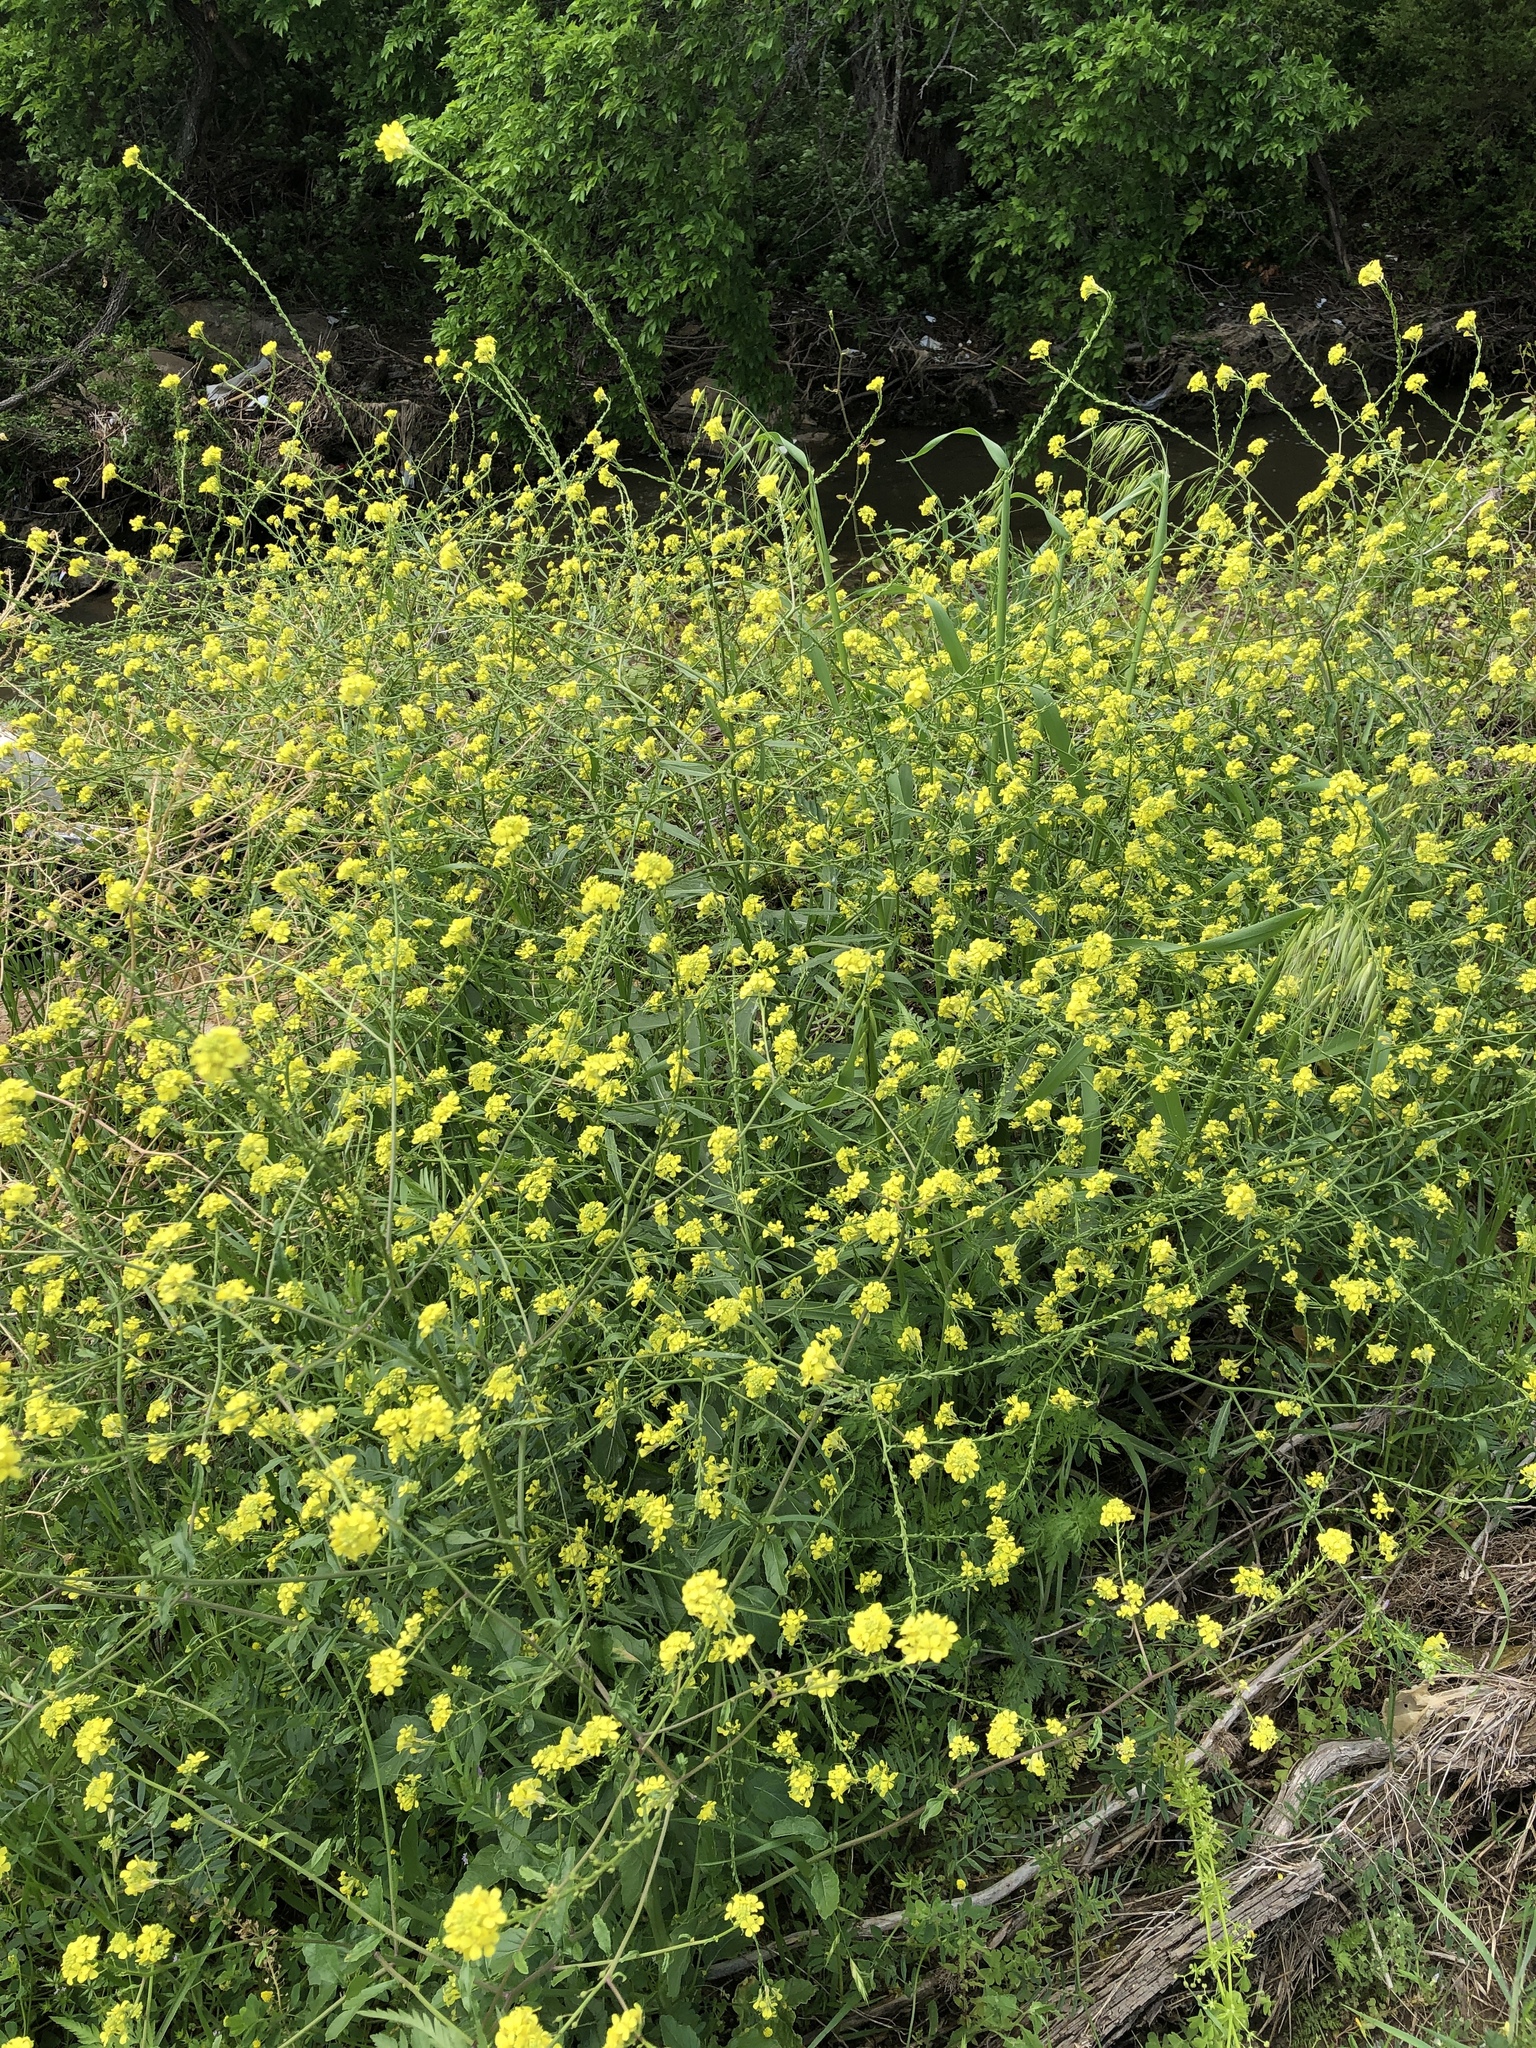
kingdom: Plantae
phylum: Tracheophyta
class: Magnoliopsida
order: Brassicales
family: Brassicaceae
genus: Rapistrum
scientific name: Rapistrum rugosum
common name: Annual bastardcabbage
